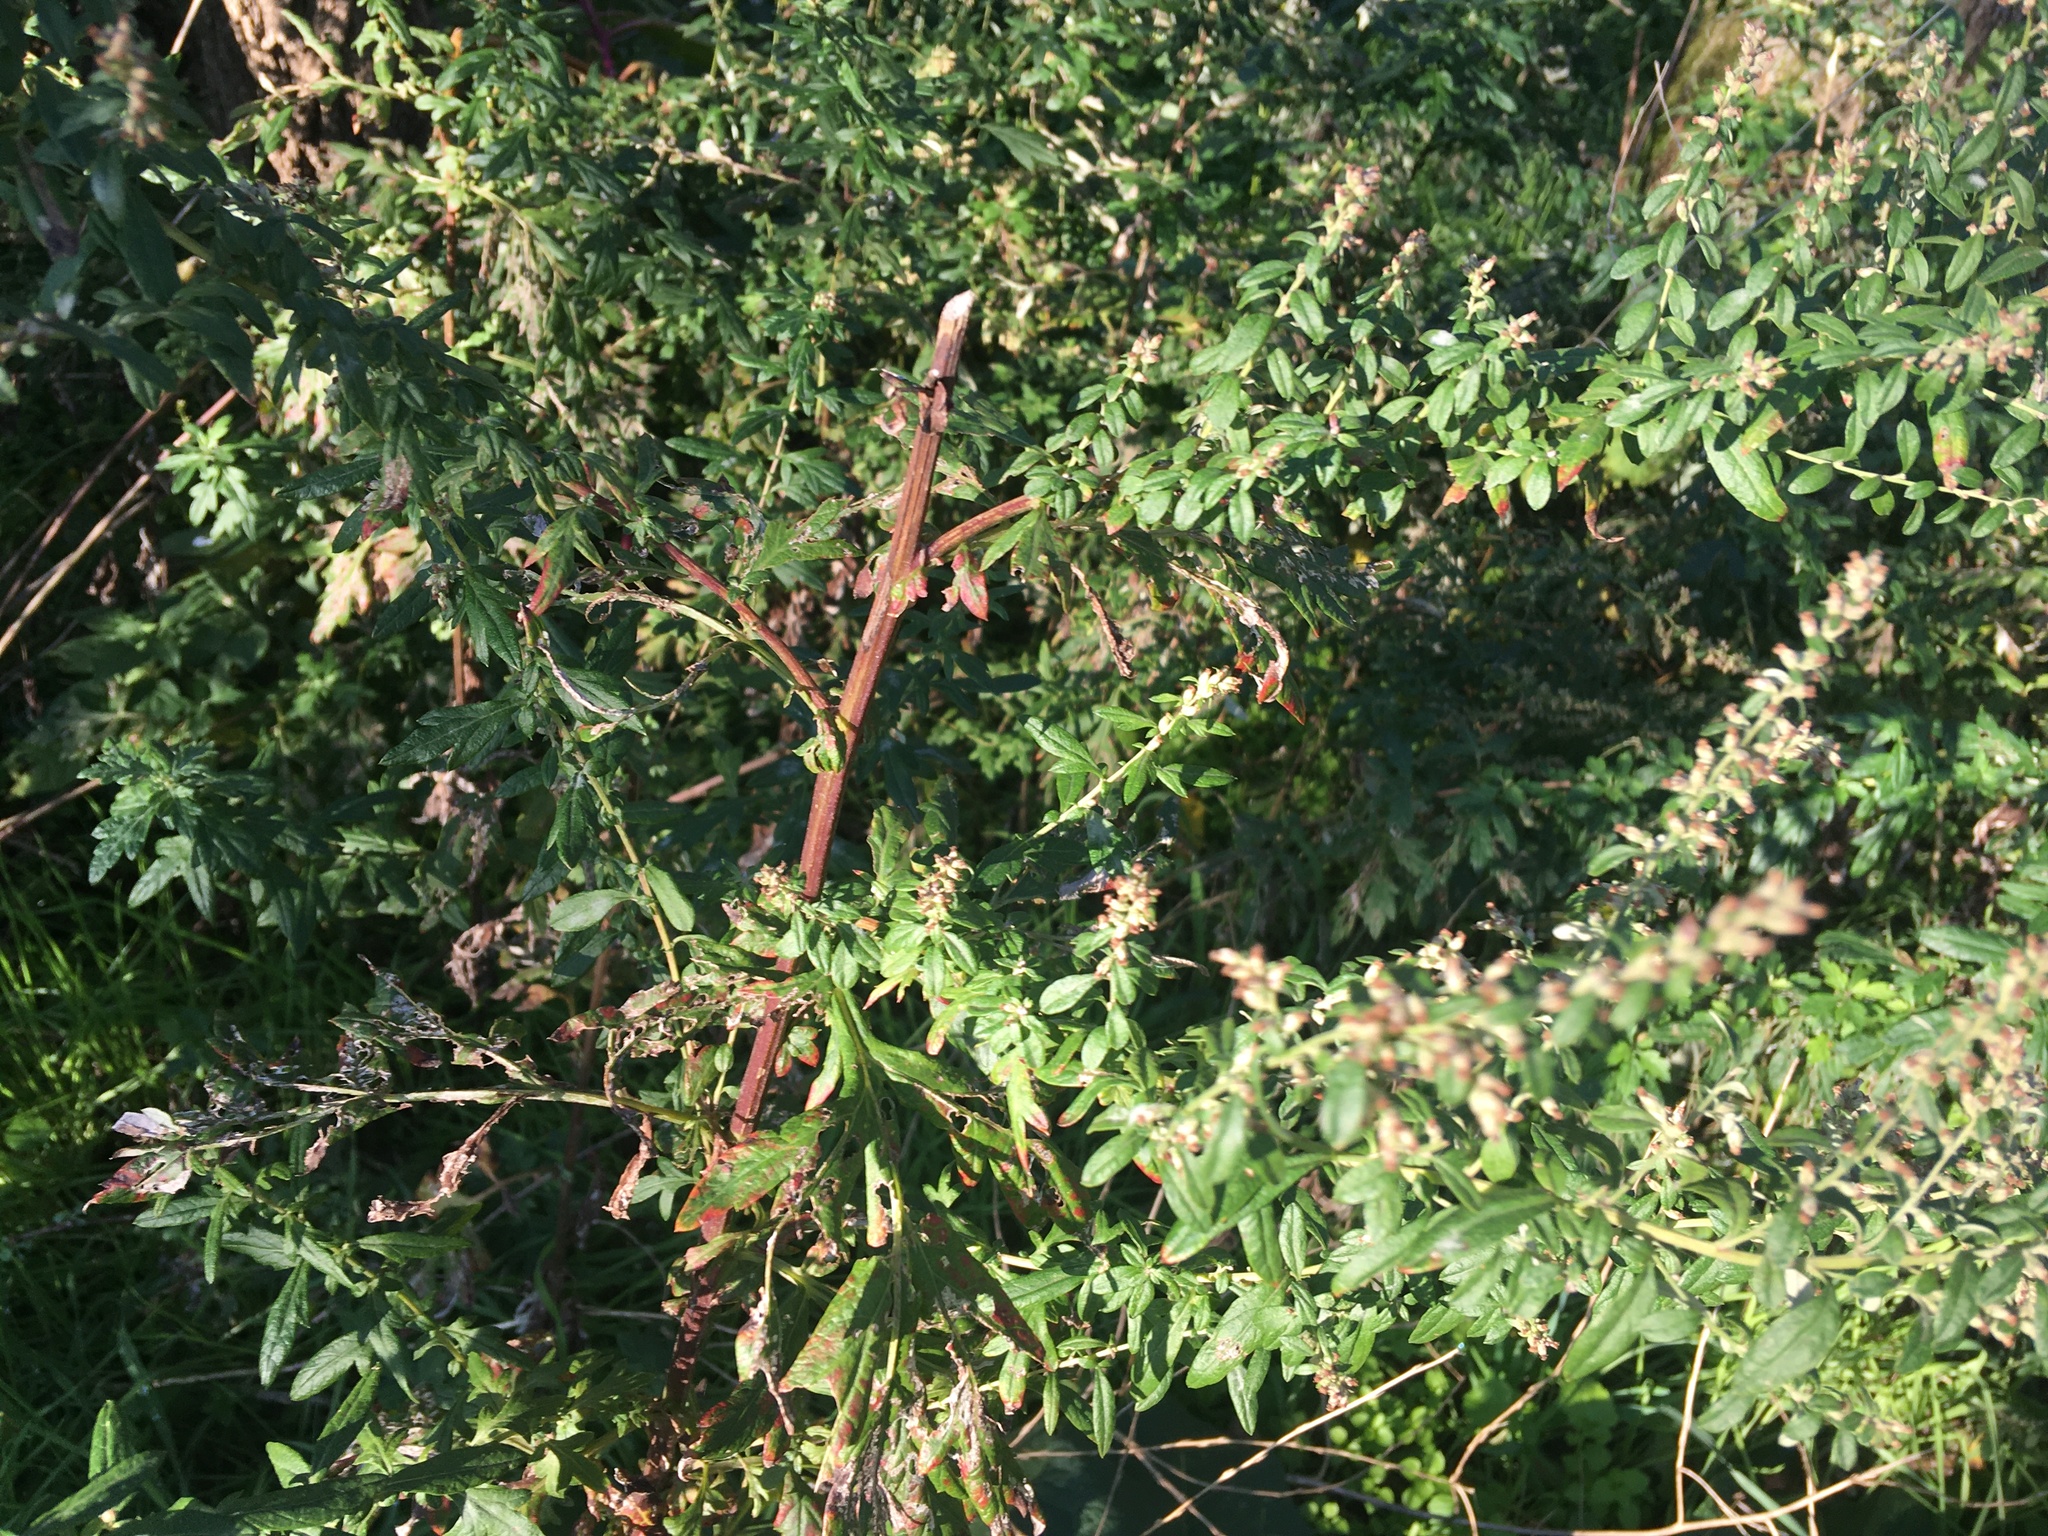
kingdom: Plantae
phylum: Tracheophyta
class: Magnoliopsida
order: Asterales
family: Asteraceae
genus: Artemisia
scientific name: Artemisia vulgaris
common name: Mugwort
